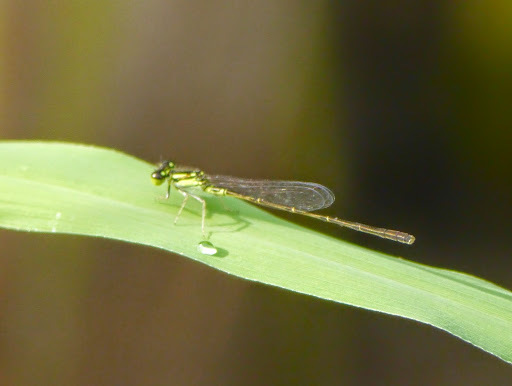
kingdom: Animalia
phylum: Arthropoda
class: Insecta
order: Odonata
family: Coenagrionidae
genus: Ischnura
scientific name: Ischnura posita
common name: Fragile forktail
